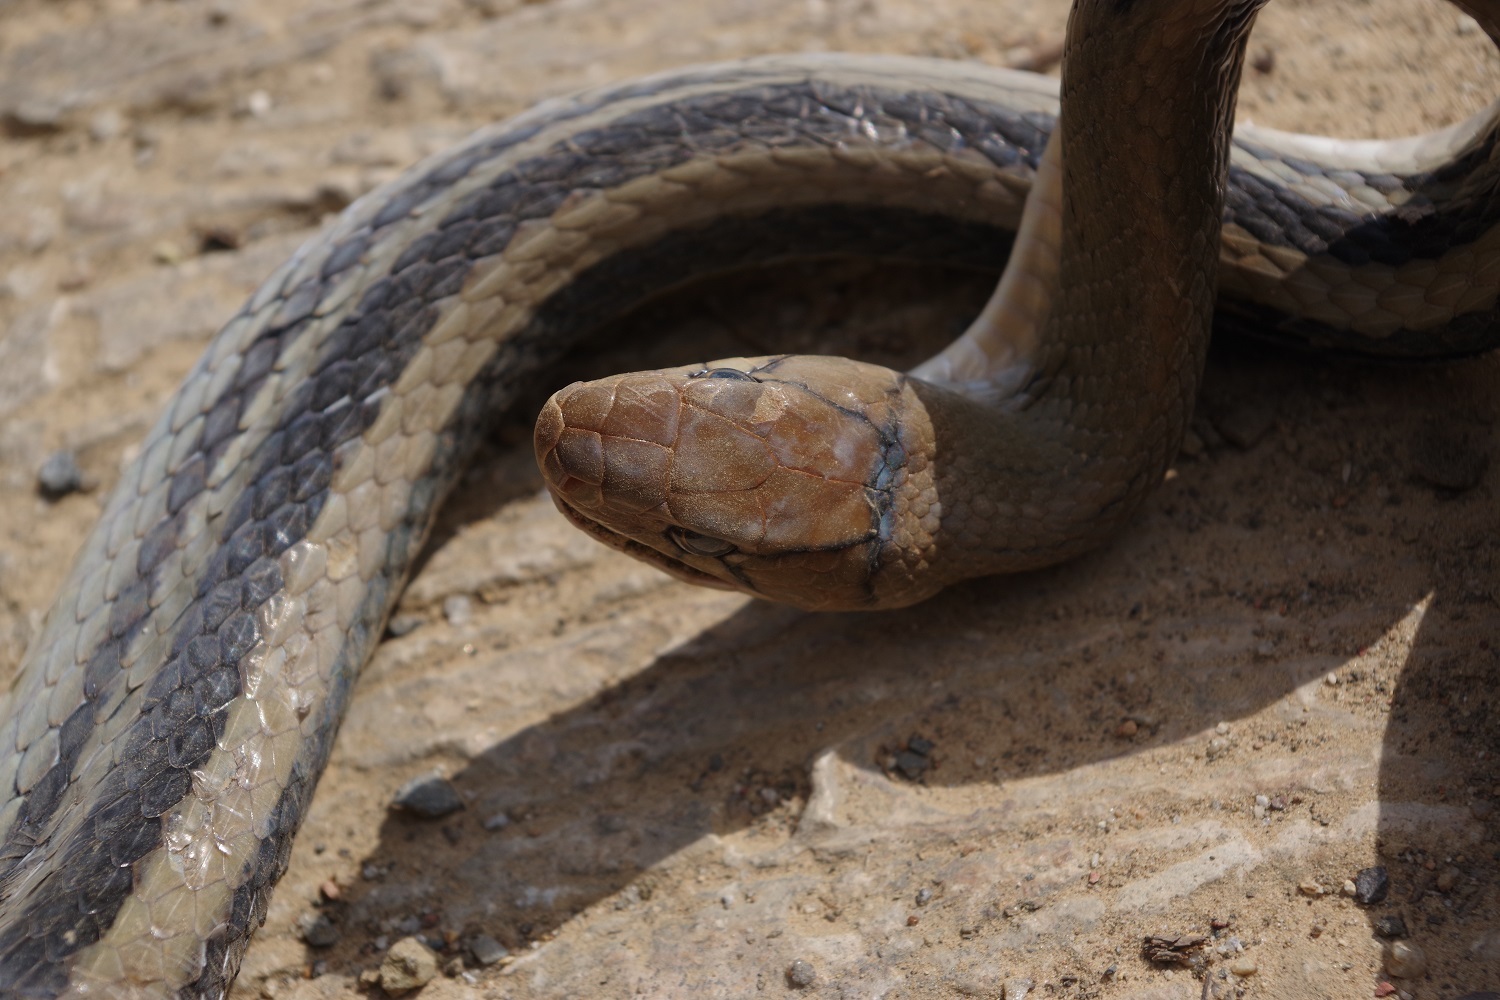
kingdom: Animalia
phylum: Chordata
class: Squamata
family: Colubridae
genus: Coelognathus
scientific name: Coelognathus radiatus
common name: Copperhead rat snake
